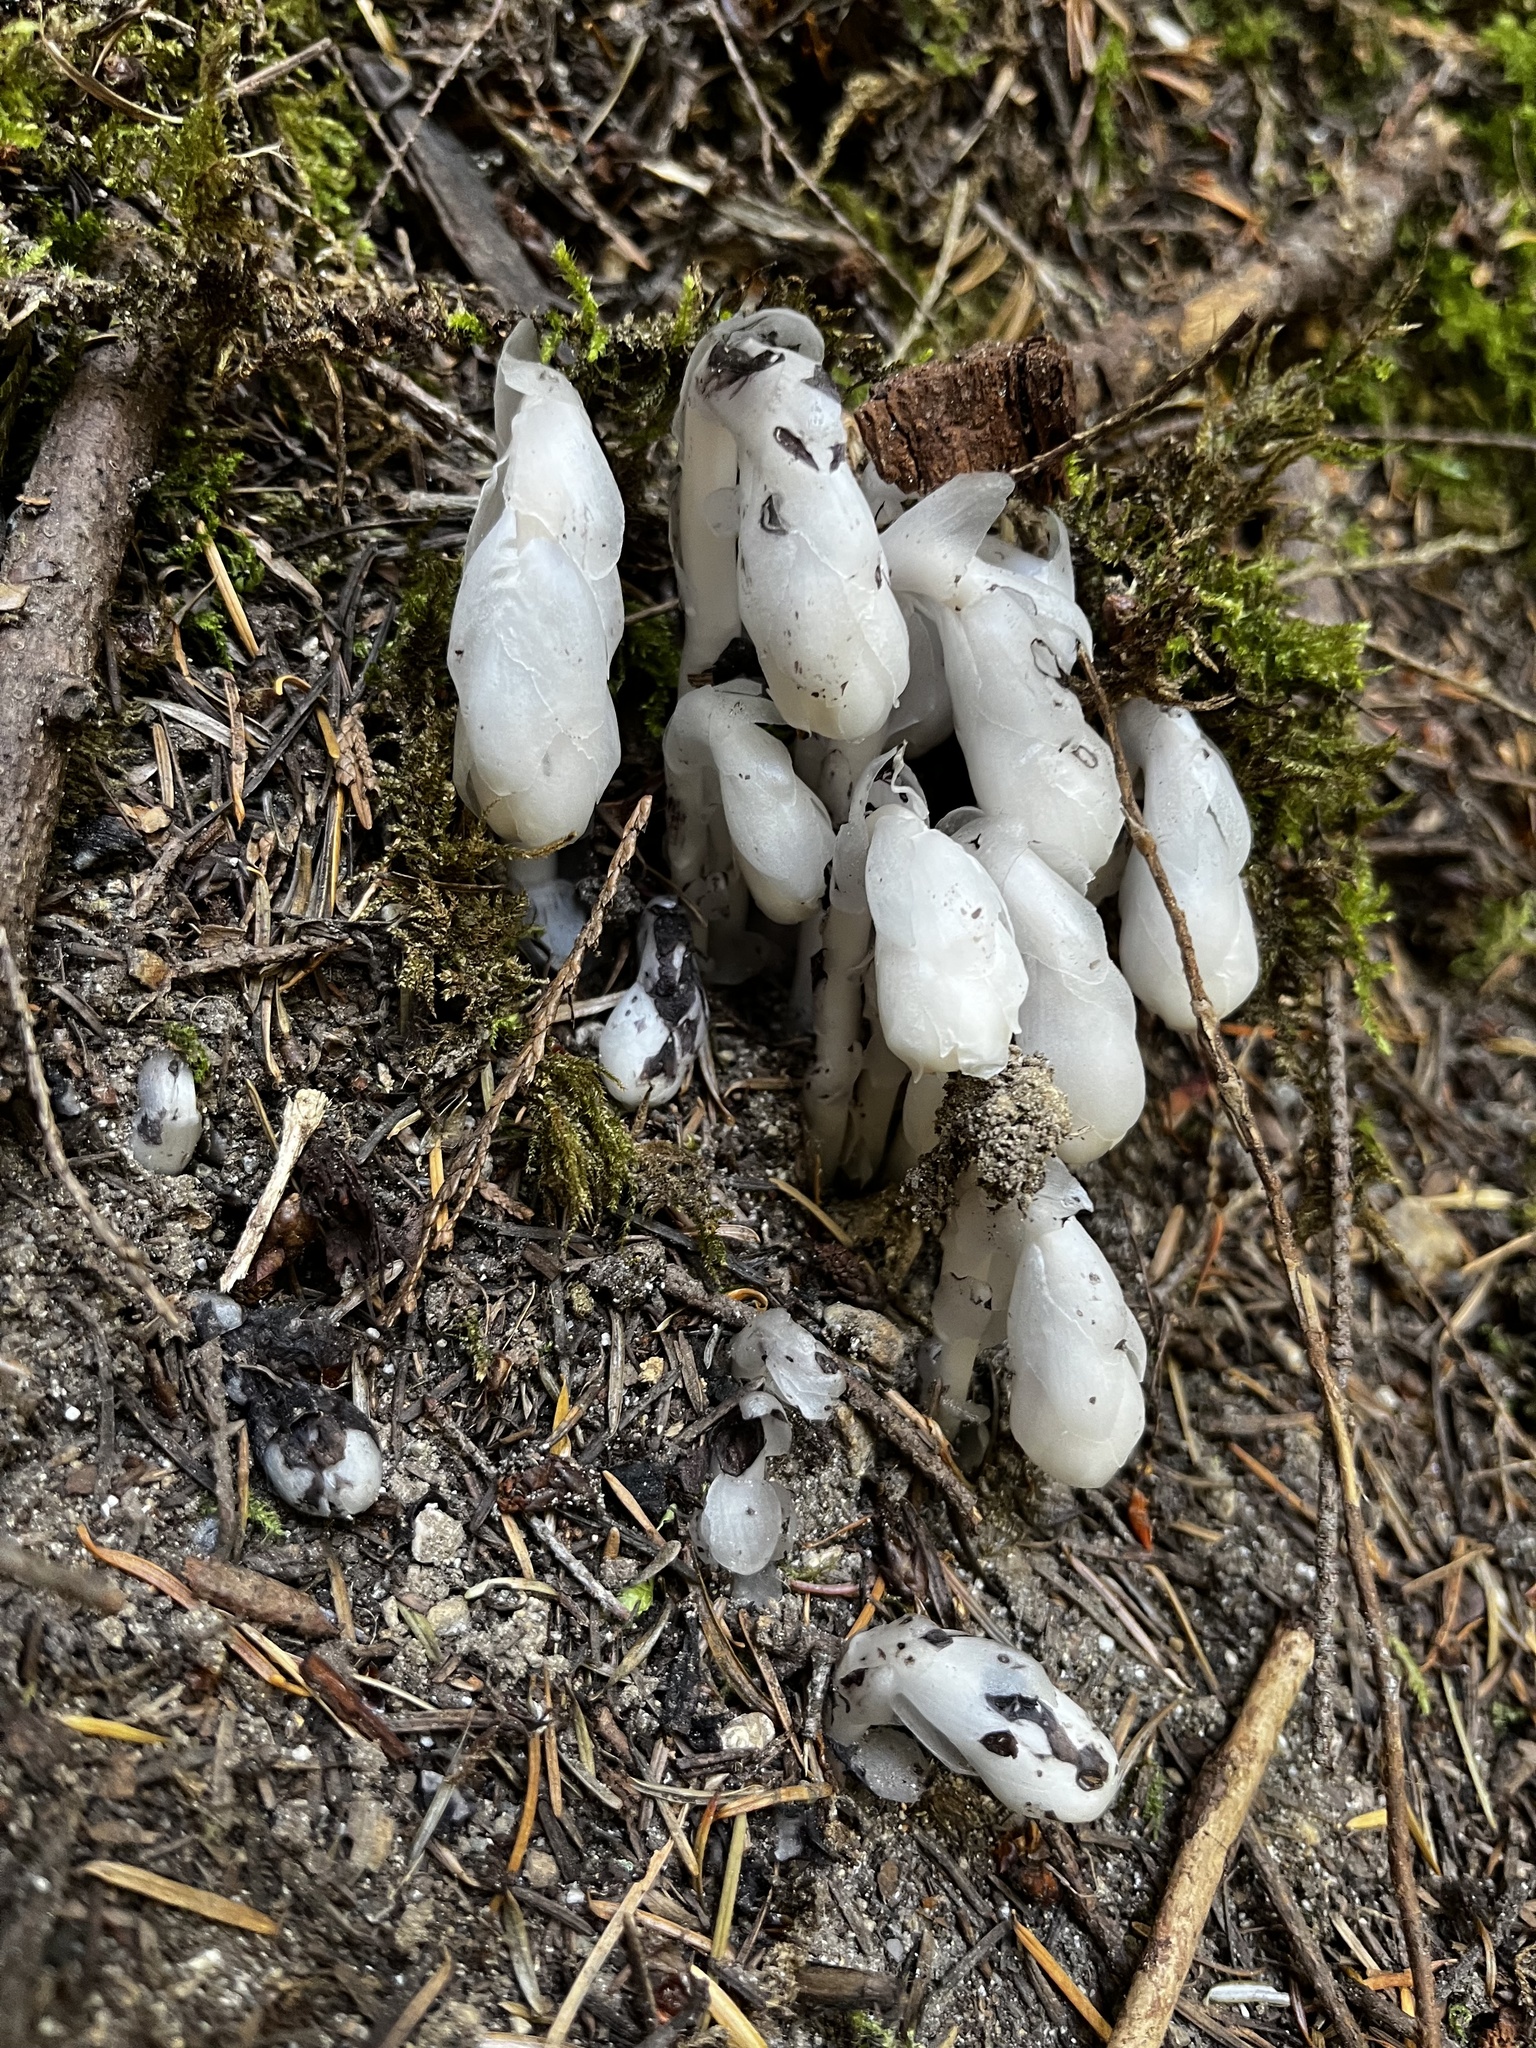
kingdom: Plantae
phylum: Tracheophyta
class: Magnoliopsida
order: Ericales
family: Ericaceae
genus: Monotropa
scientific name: Monotropa uniflora
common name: Convulsion root
